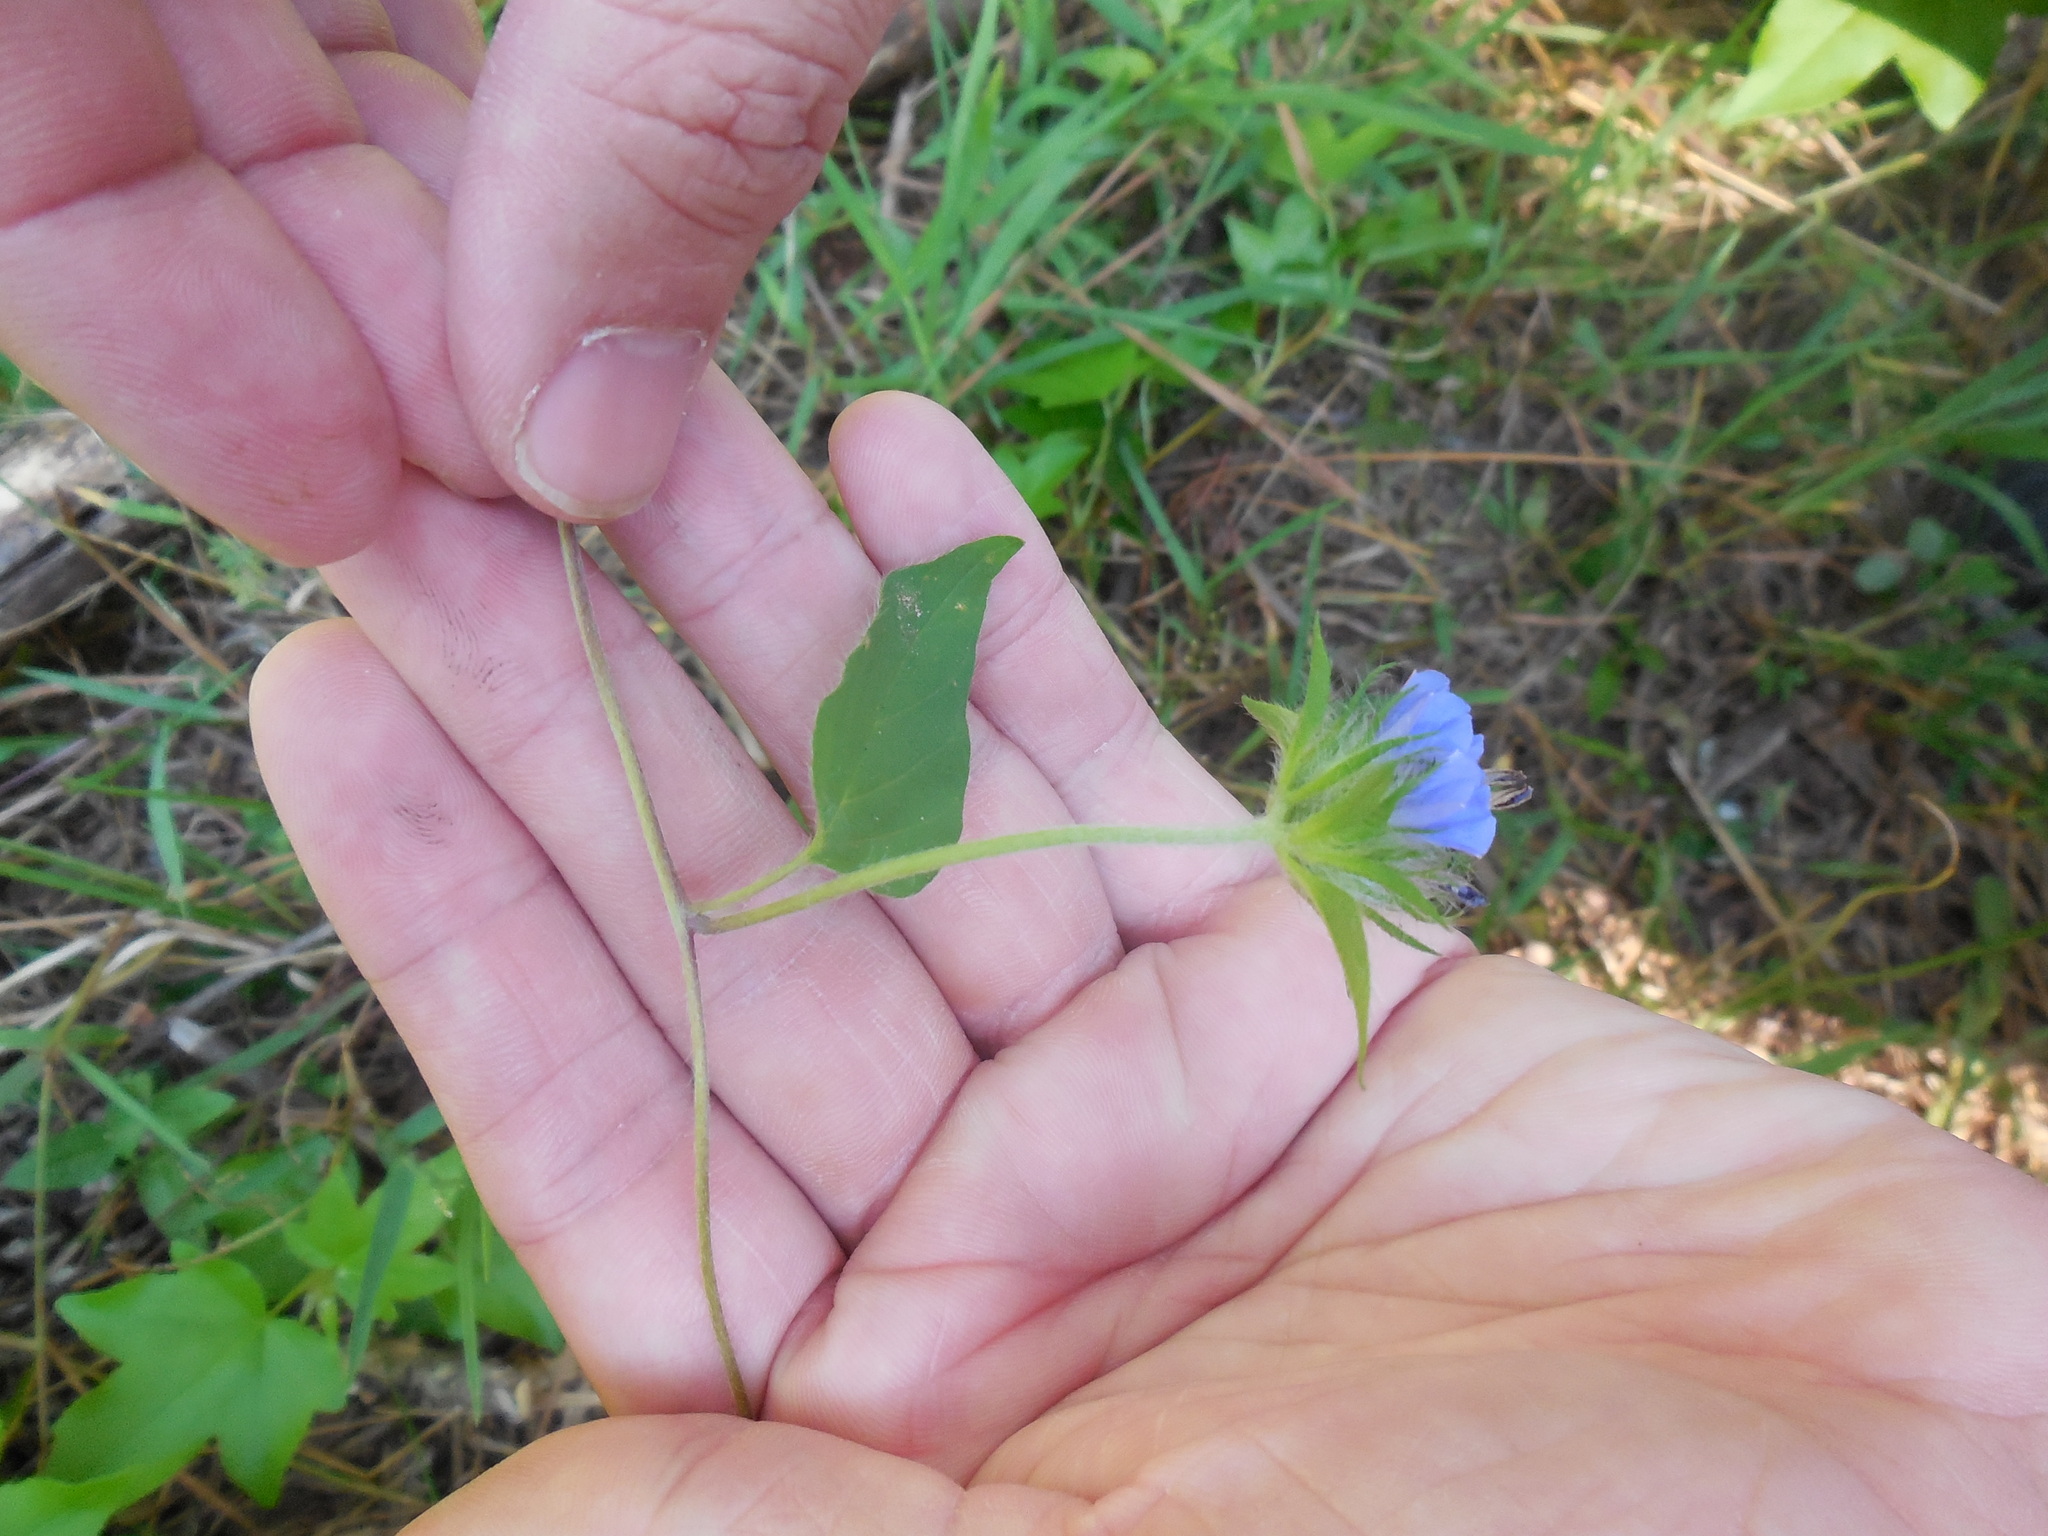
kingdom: Plantae
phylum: Tracheophyta
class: Magnoliopsida
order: Solanales
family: Convolvulaceae
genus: Jacquemontia
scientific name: Jacquemontia tamnifolia
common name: Hairy clustervine
